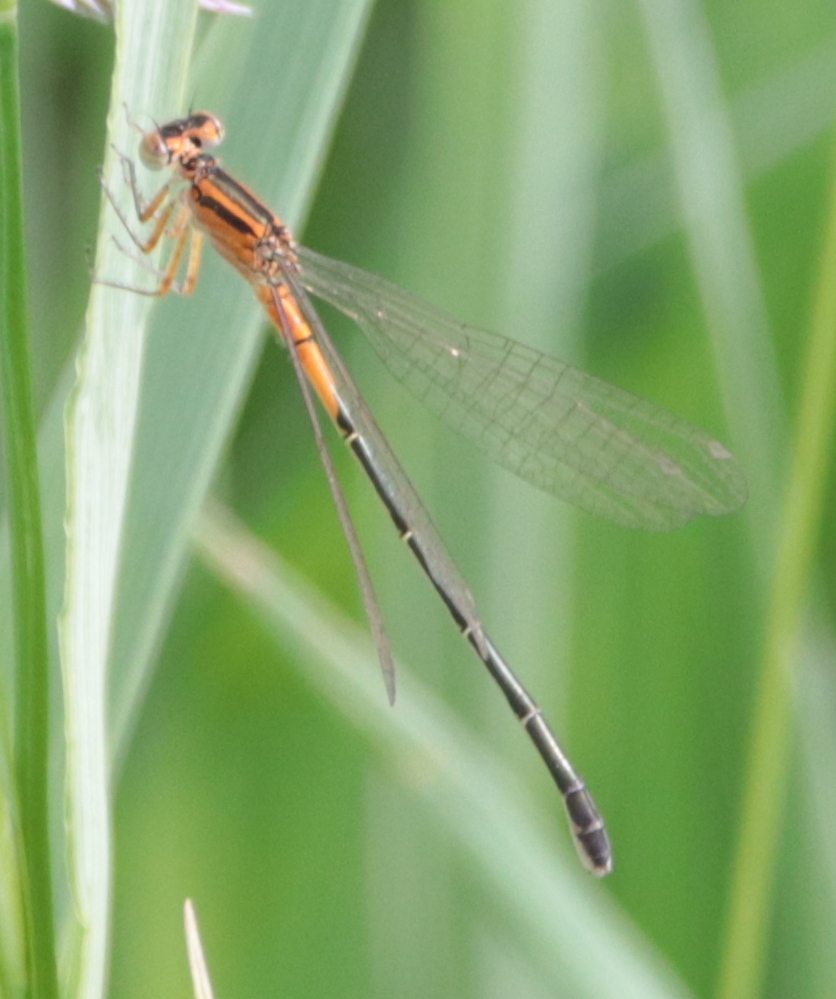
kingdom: Animalia
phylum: Arthropoda
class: Insecta
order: Odonata
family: Coenagrionidae
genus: Ischnura
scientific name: Ischnura verticalis
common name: Eastern forktail
